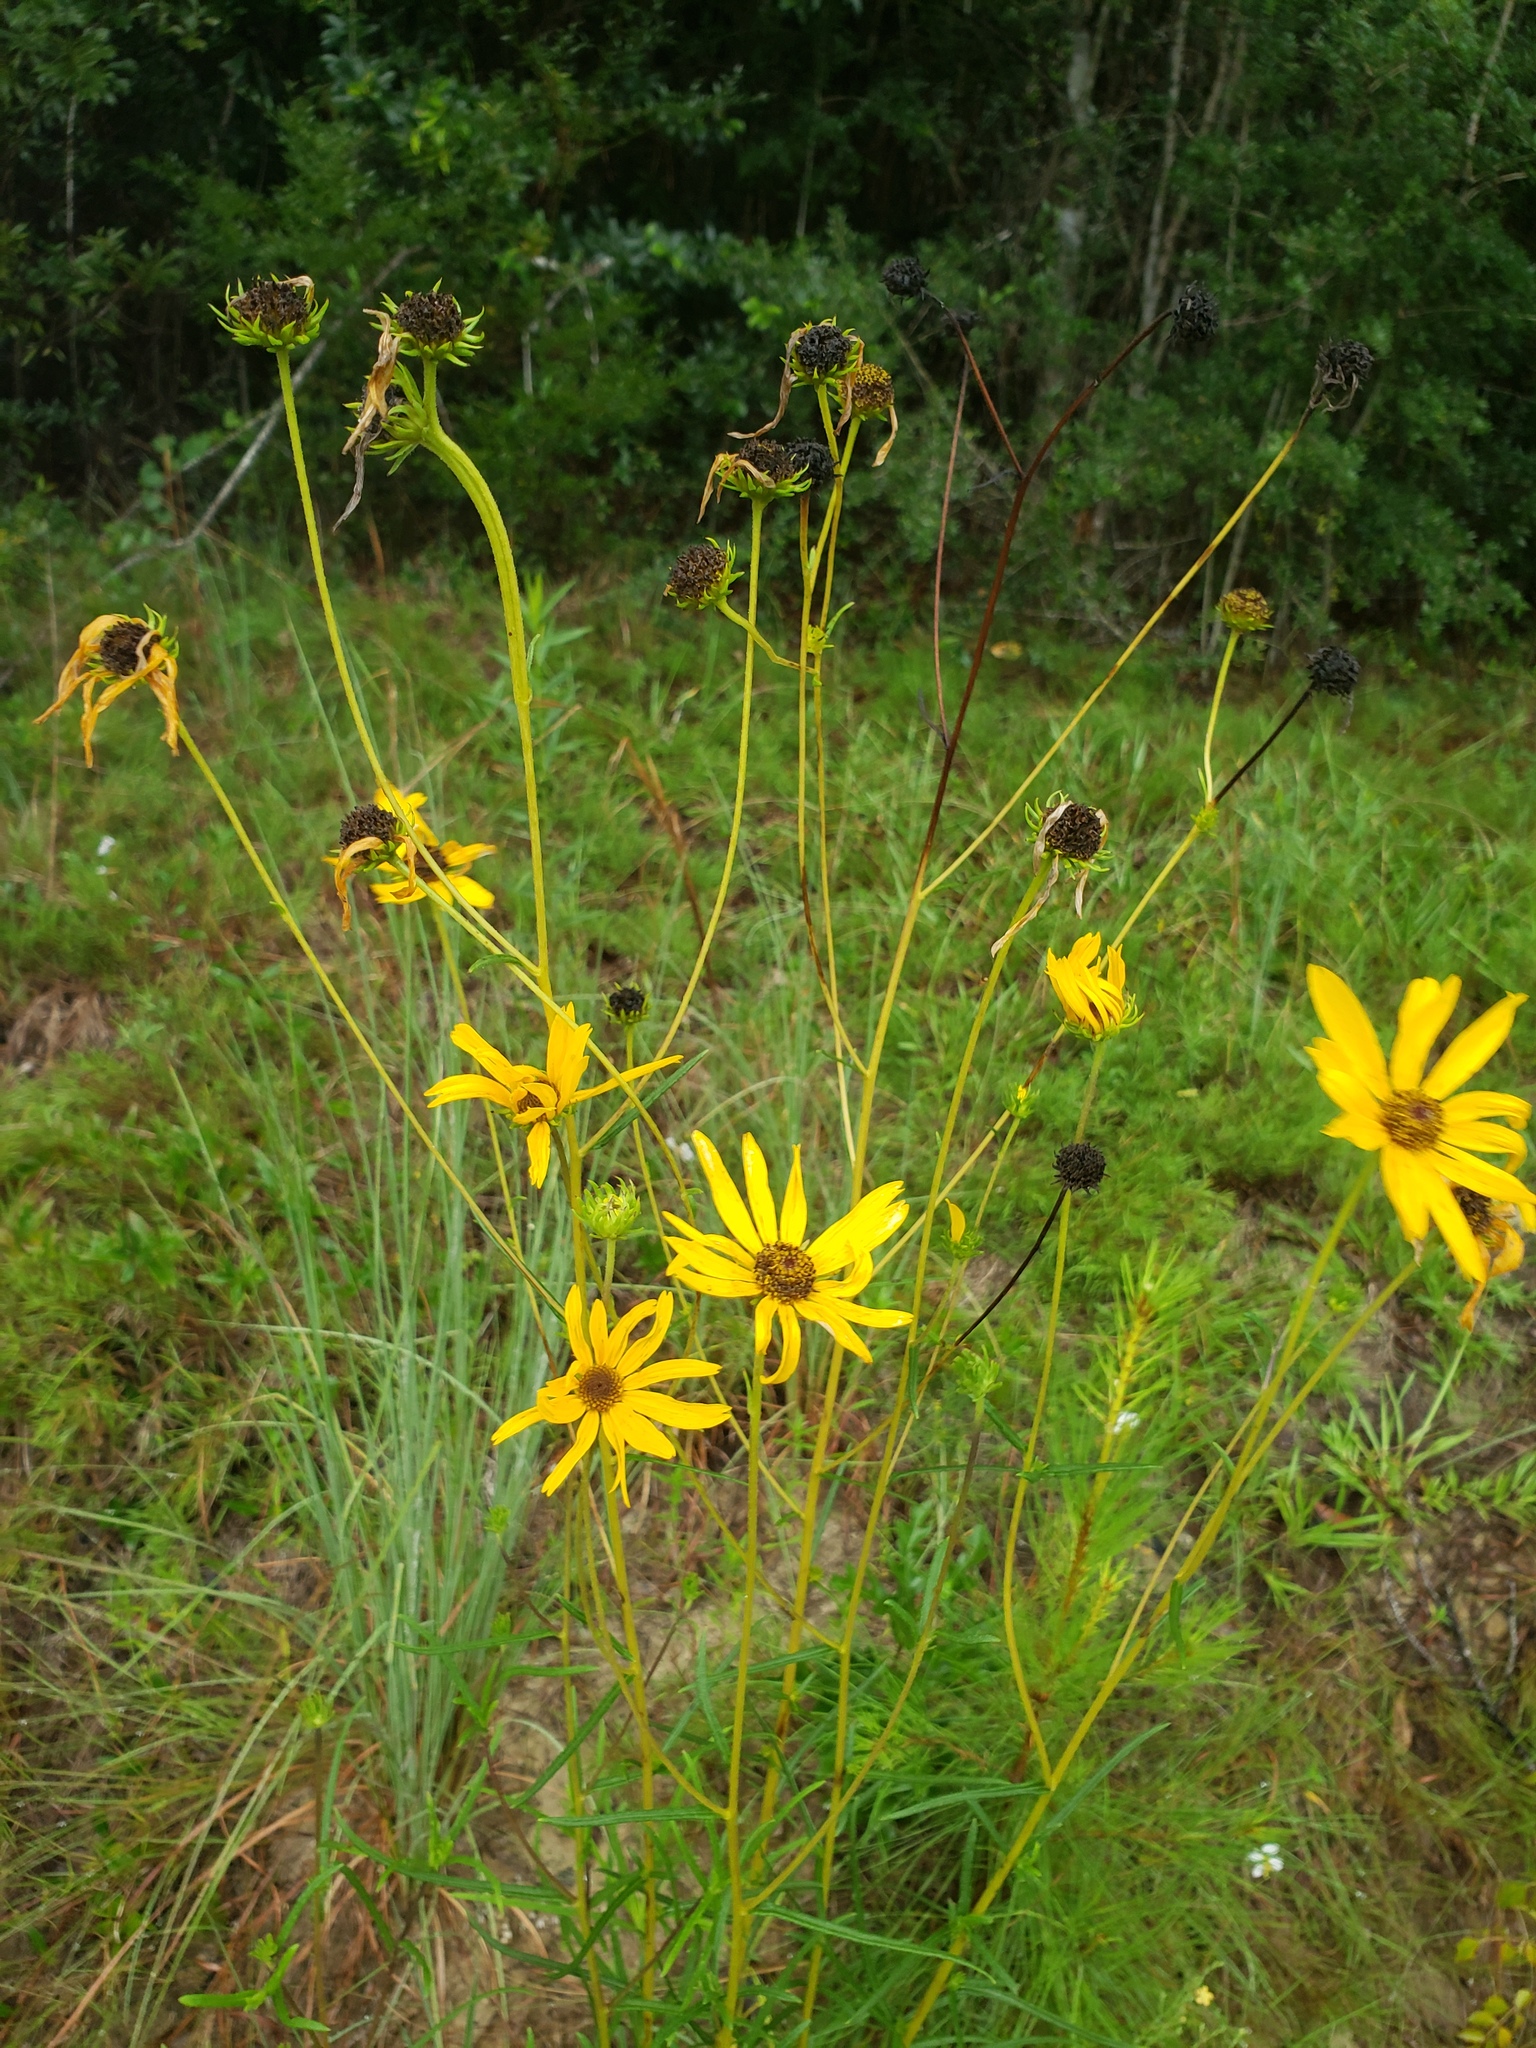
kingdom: Plantae
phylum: Tracheophyta
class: Magnoliopsida
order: Asterales
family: Asteraceae
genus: Helianthus
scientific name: Helianthus angustifolius
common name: Swamp sunflower
